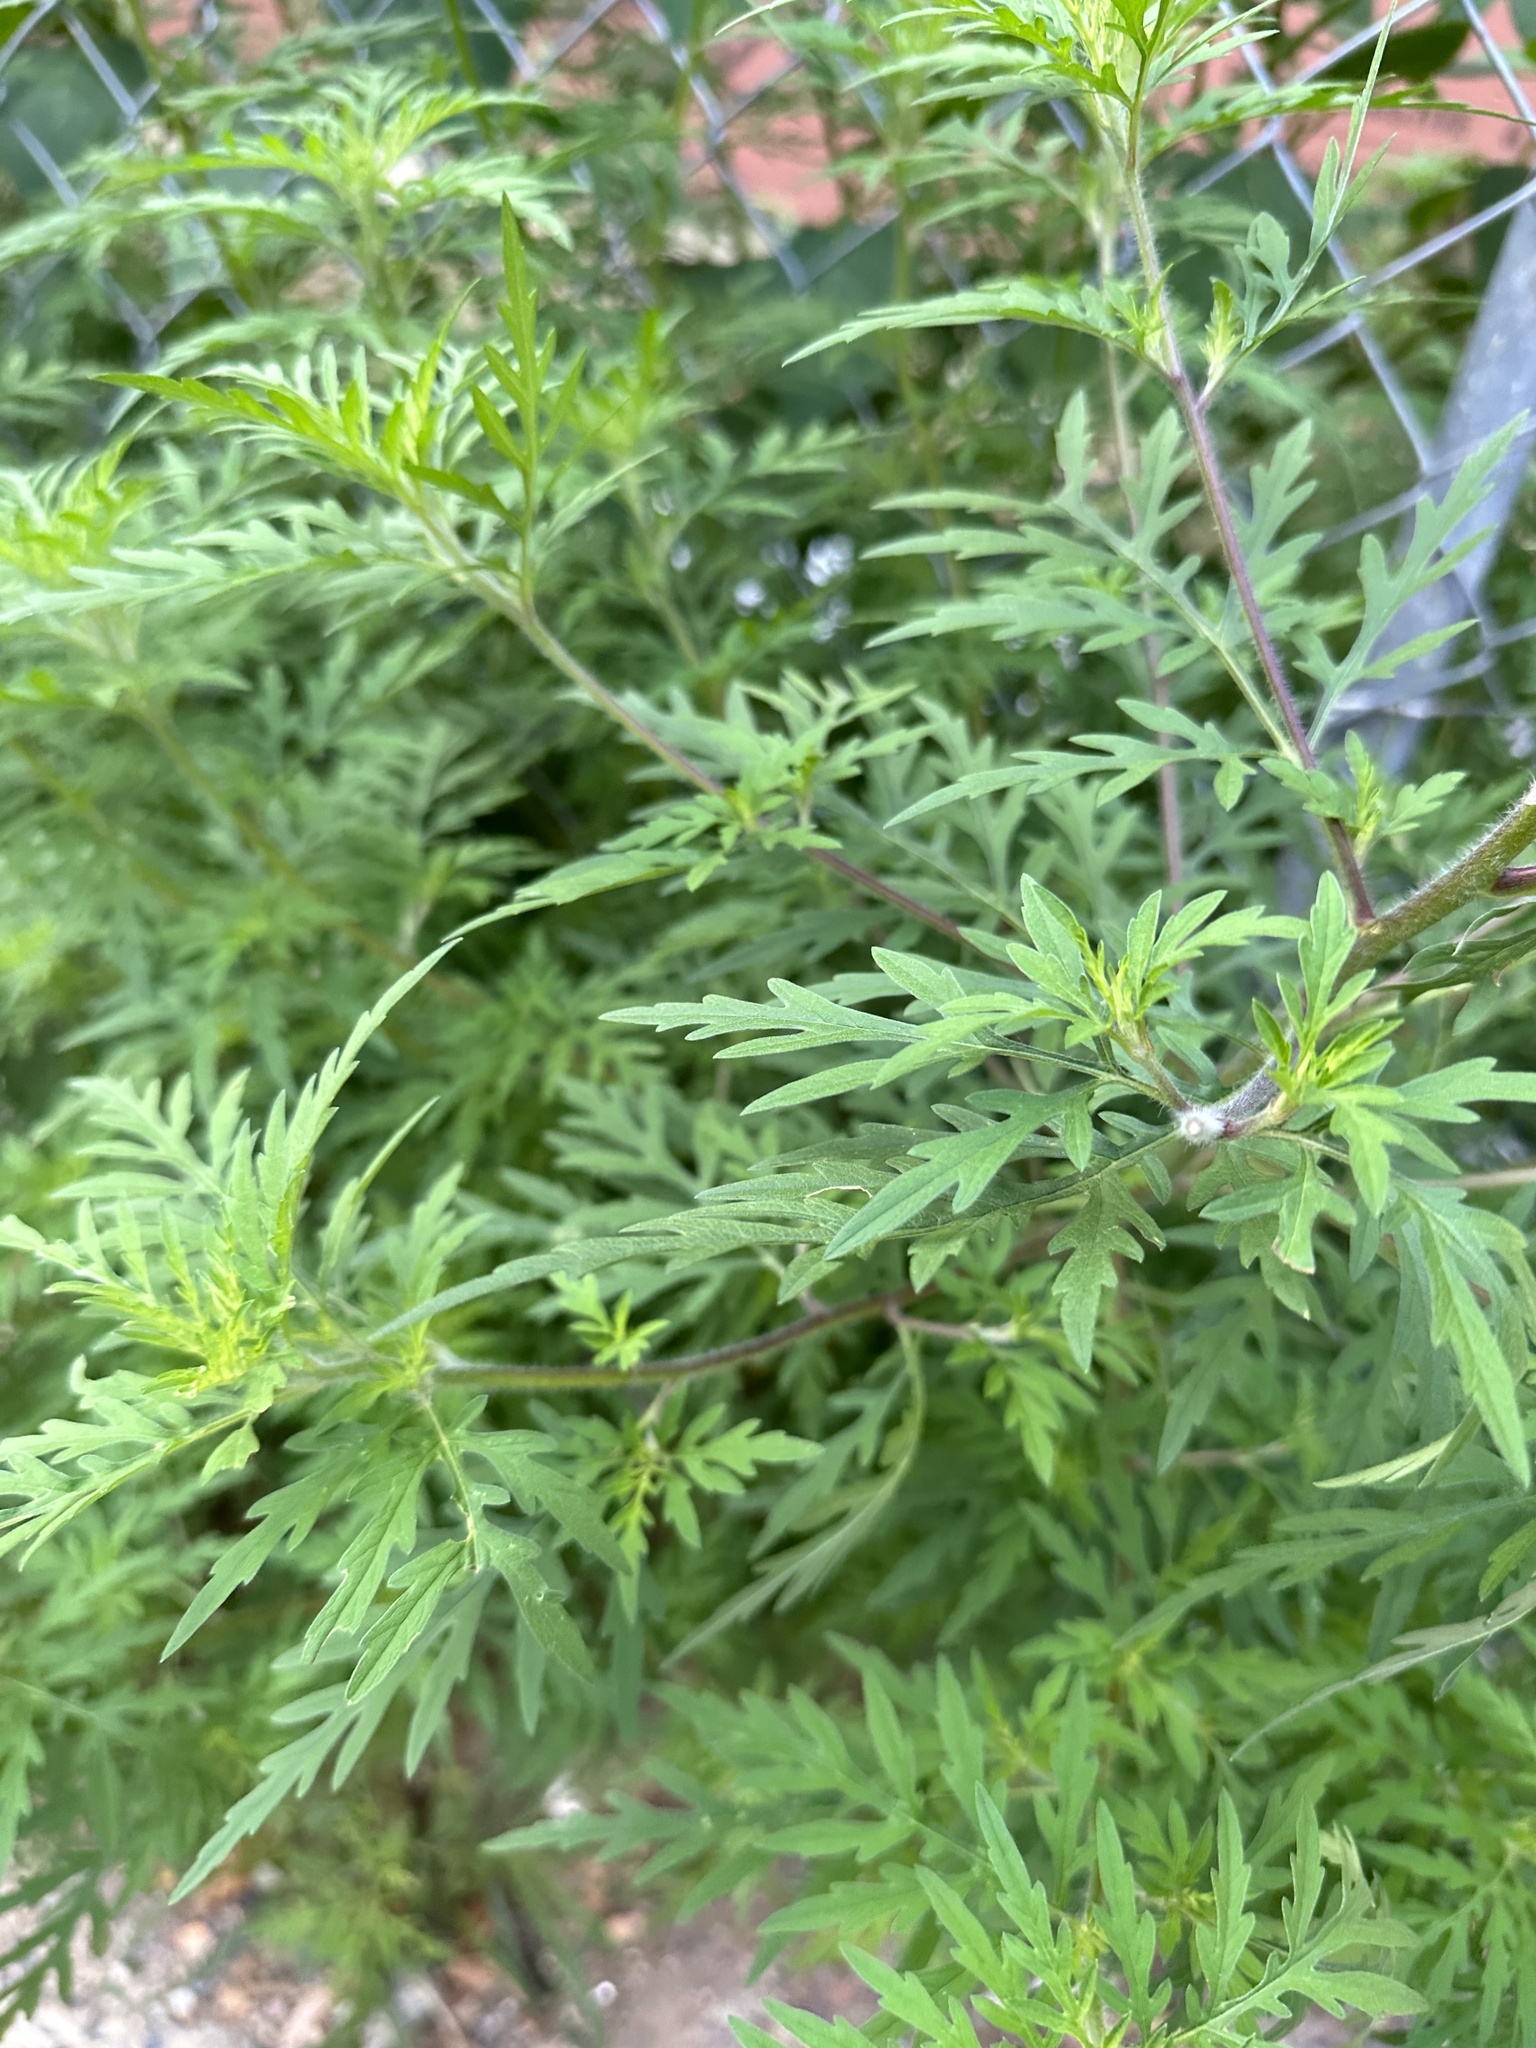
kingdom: Plantae
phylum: Tracheophyta
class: Magnoliopsida
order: Asterales
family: Asteraceae
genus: Ambrosia
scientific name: Ambrosia artemisiifolia
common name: Annual ragweed
